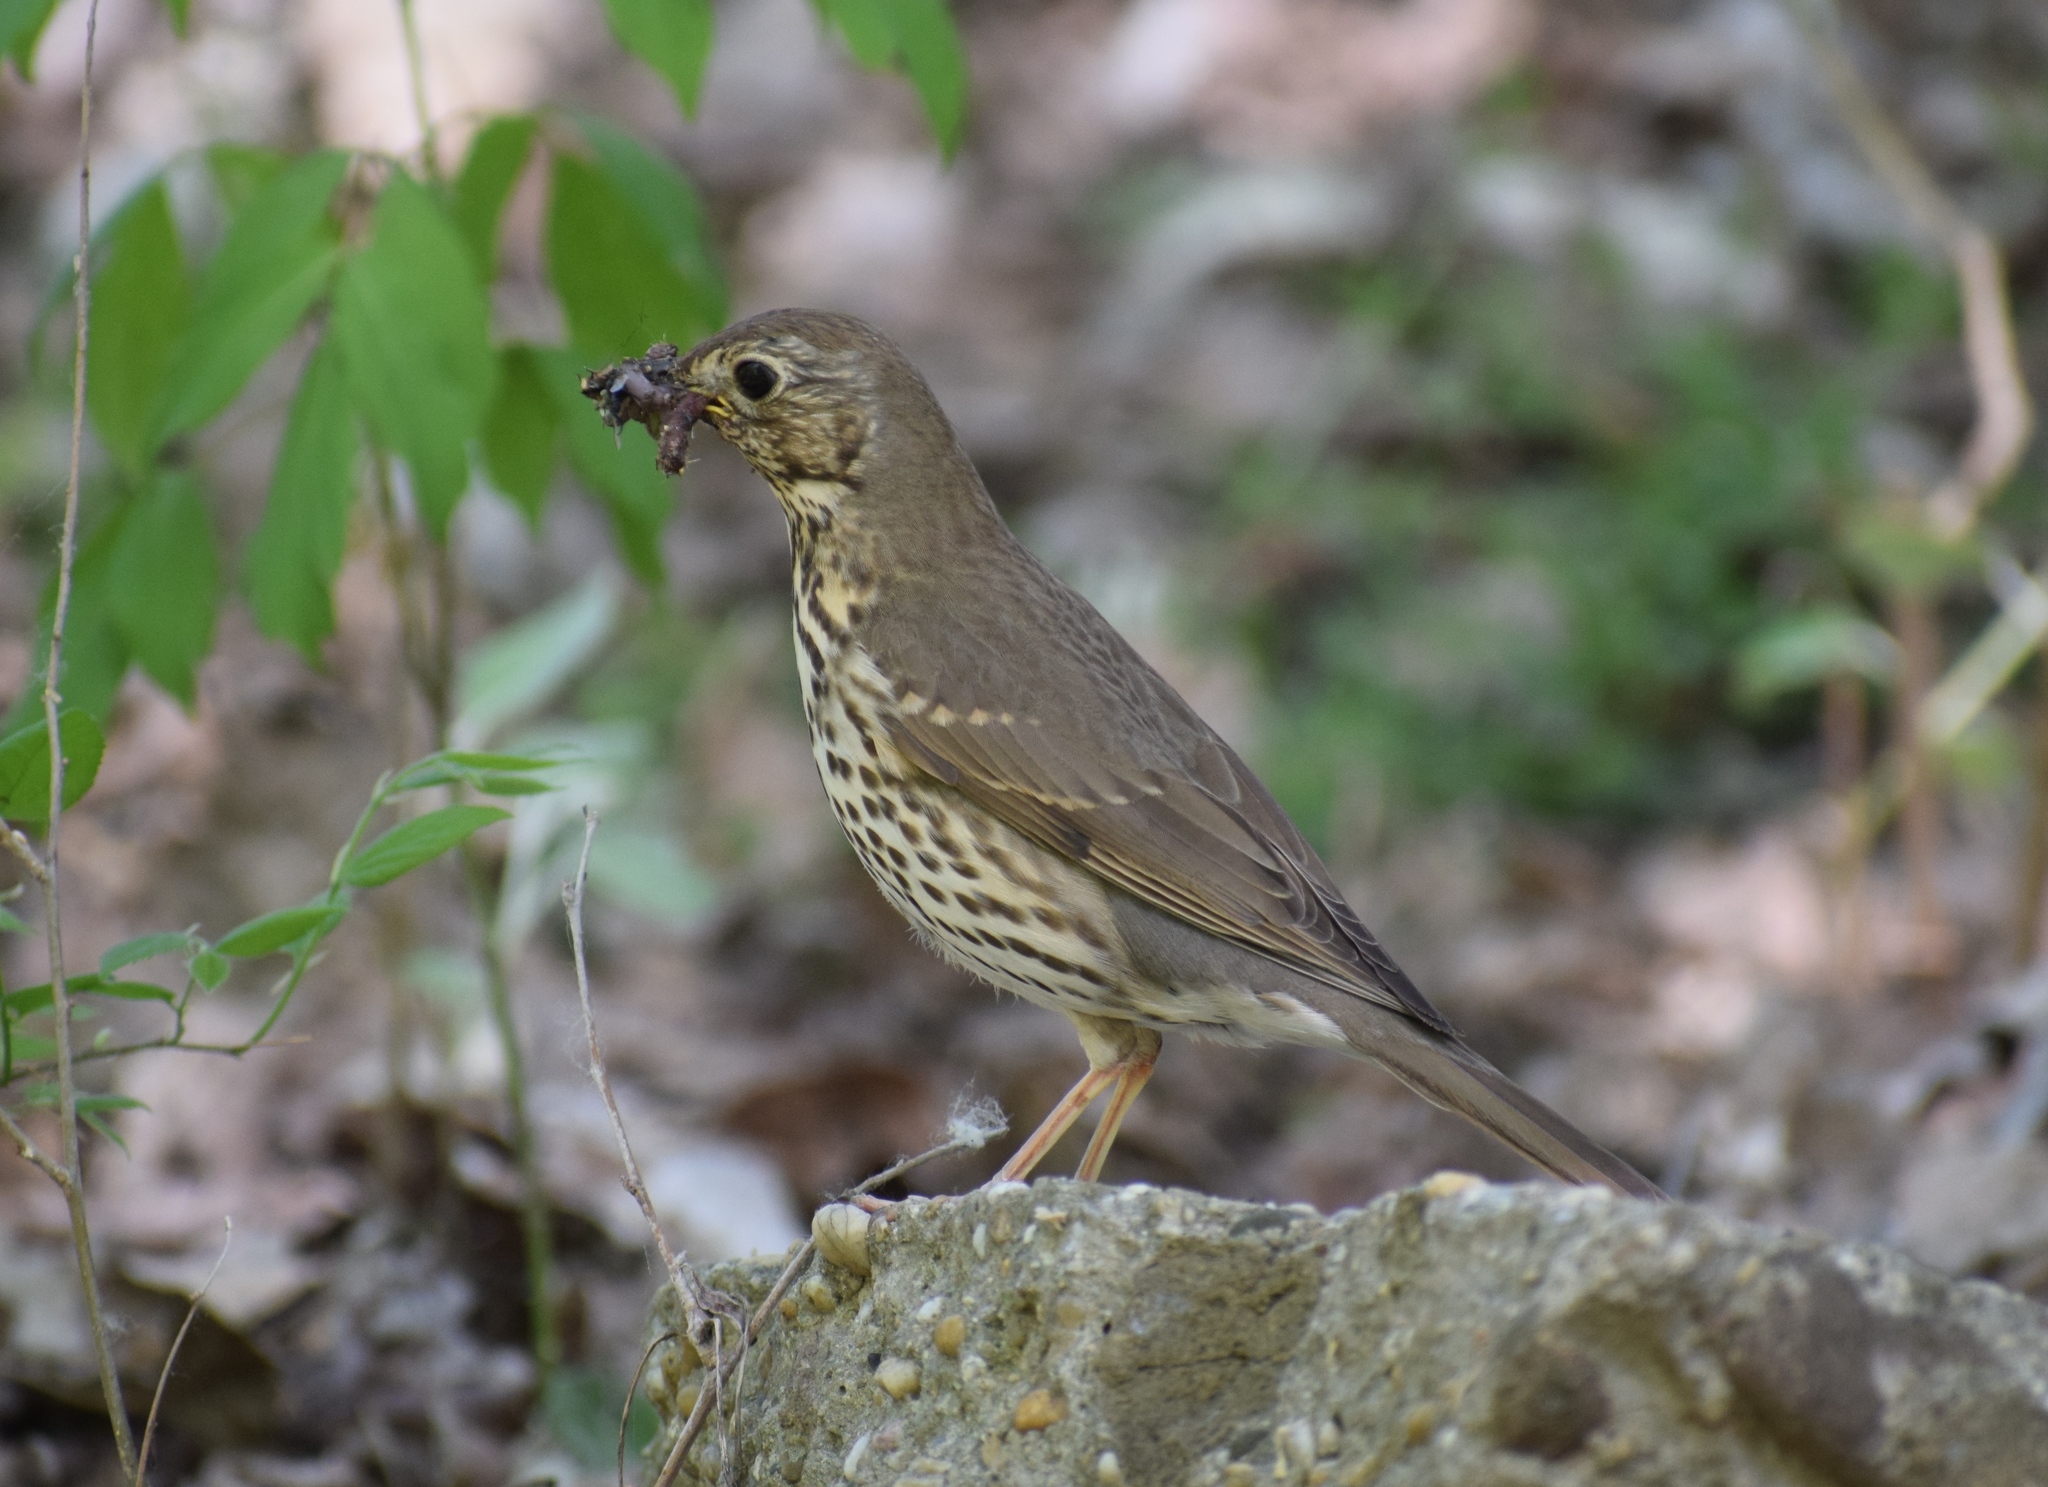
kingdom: Animalia
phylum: Chordata
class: Aves
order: Passeriformes
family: Turdidae
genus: Turdus
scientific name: Turdus philomelos
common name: Song thrush
